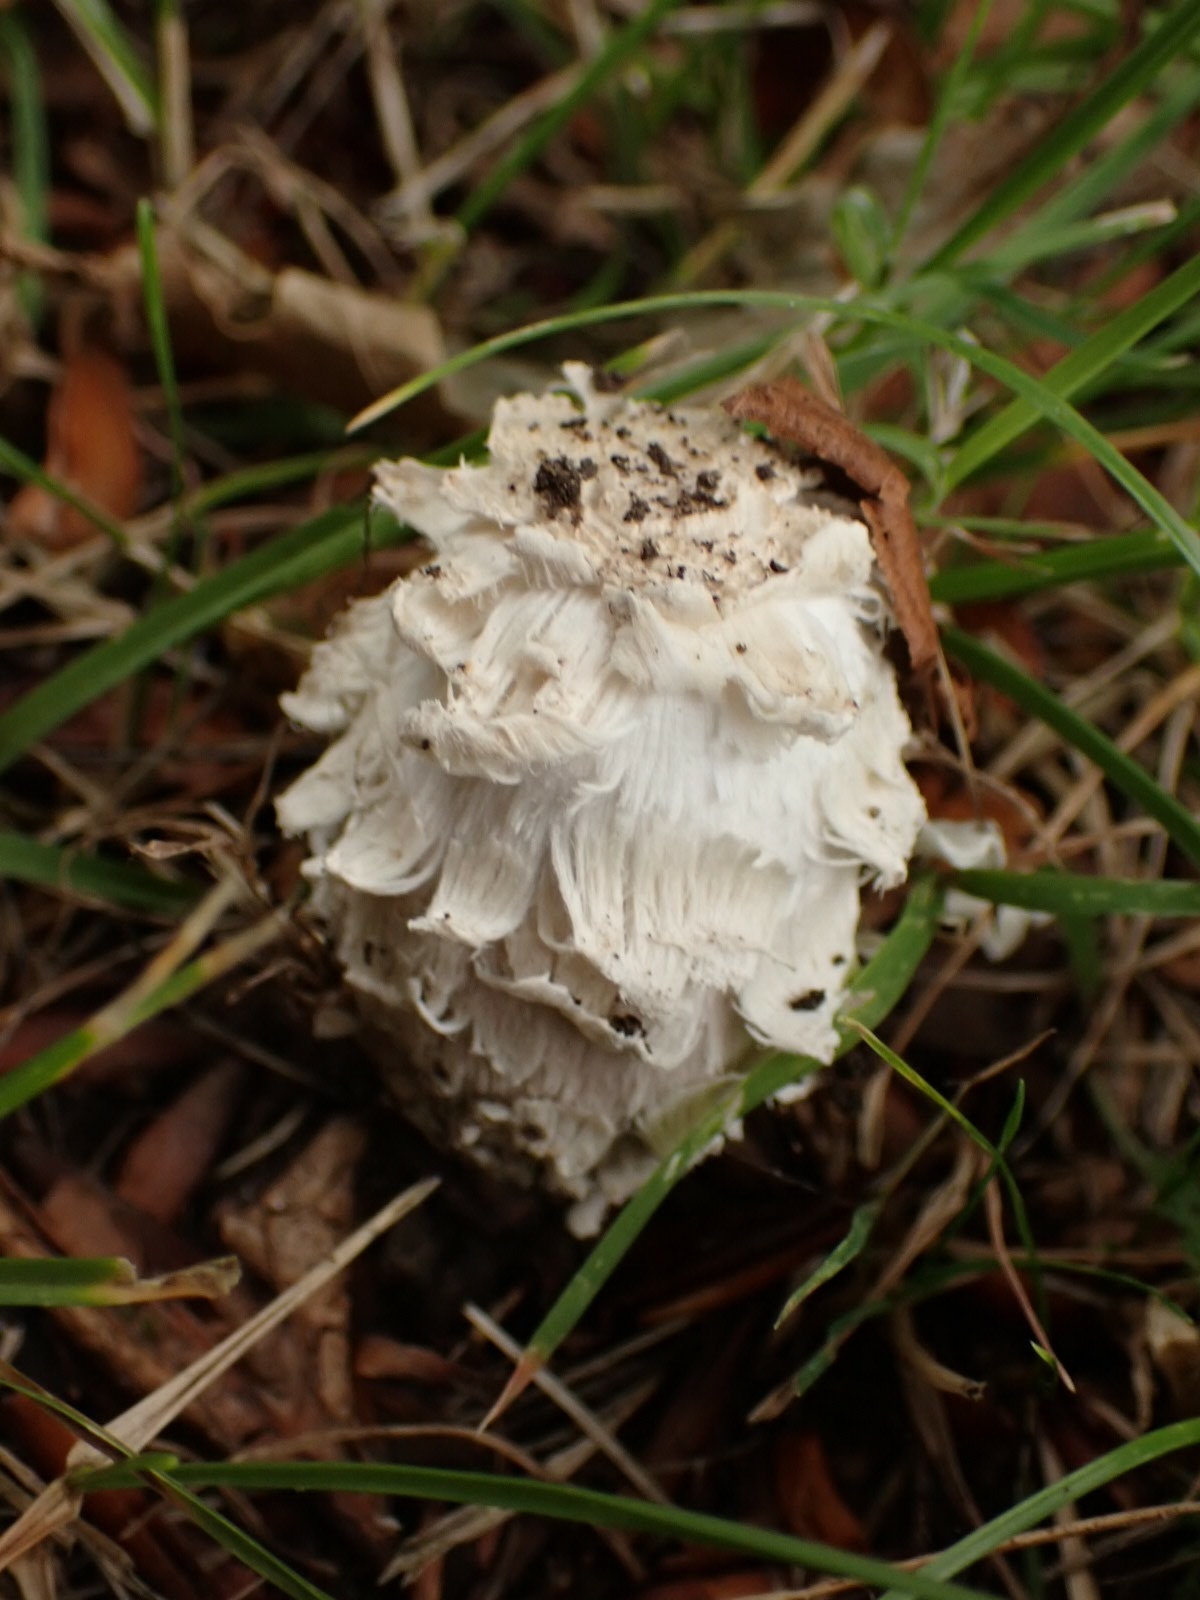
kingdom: Fungi
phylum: Basidiomycota
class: Agaricomycetes
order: Agaricales
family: Agaricaceae
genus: Coprinus
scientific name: Coprinus comatus
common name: Lawyer's wig
